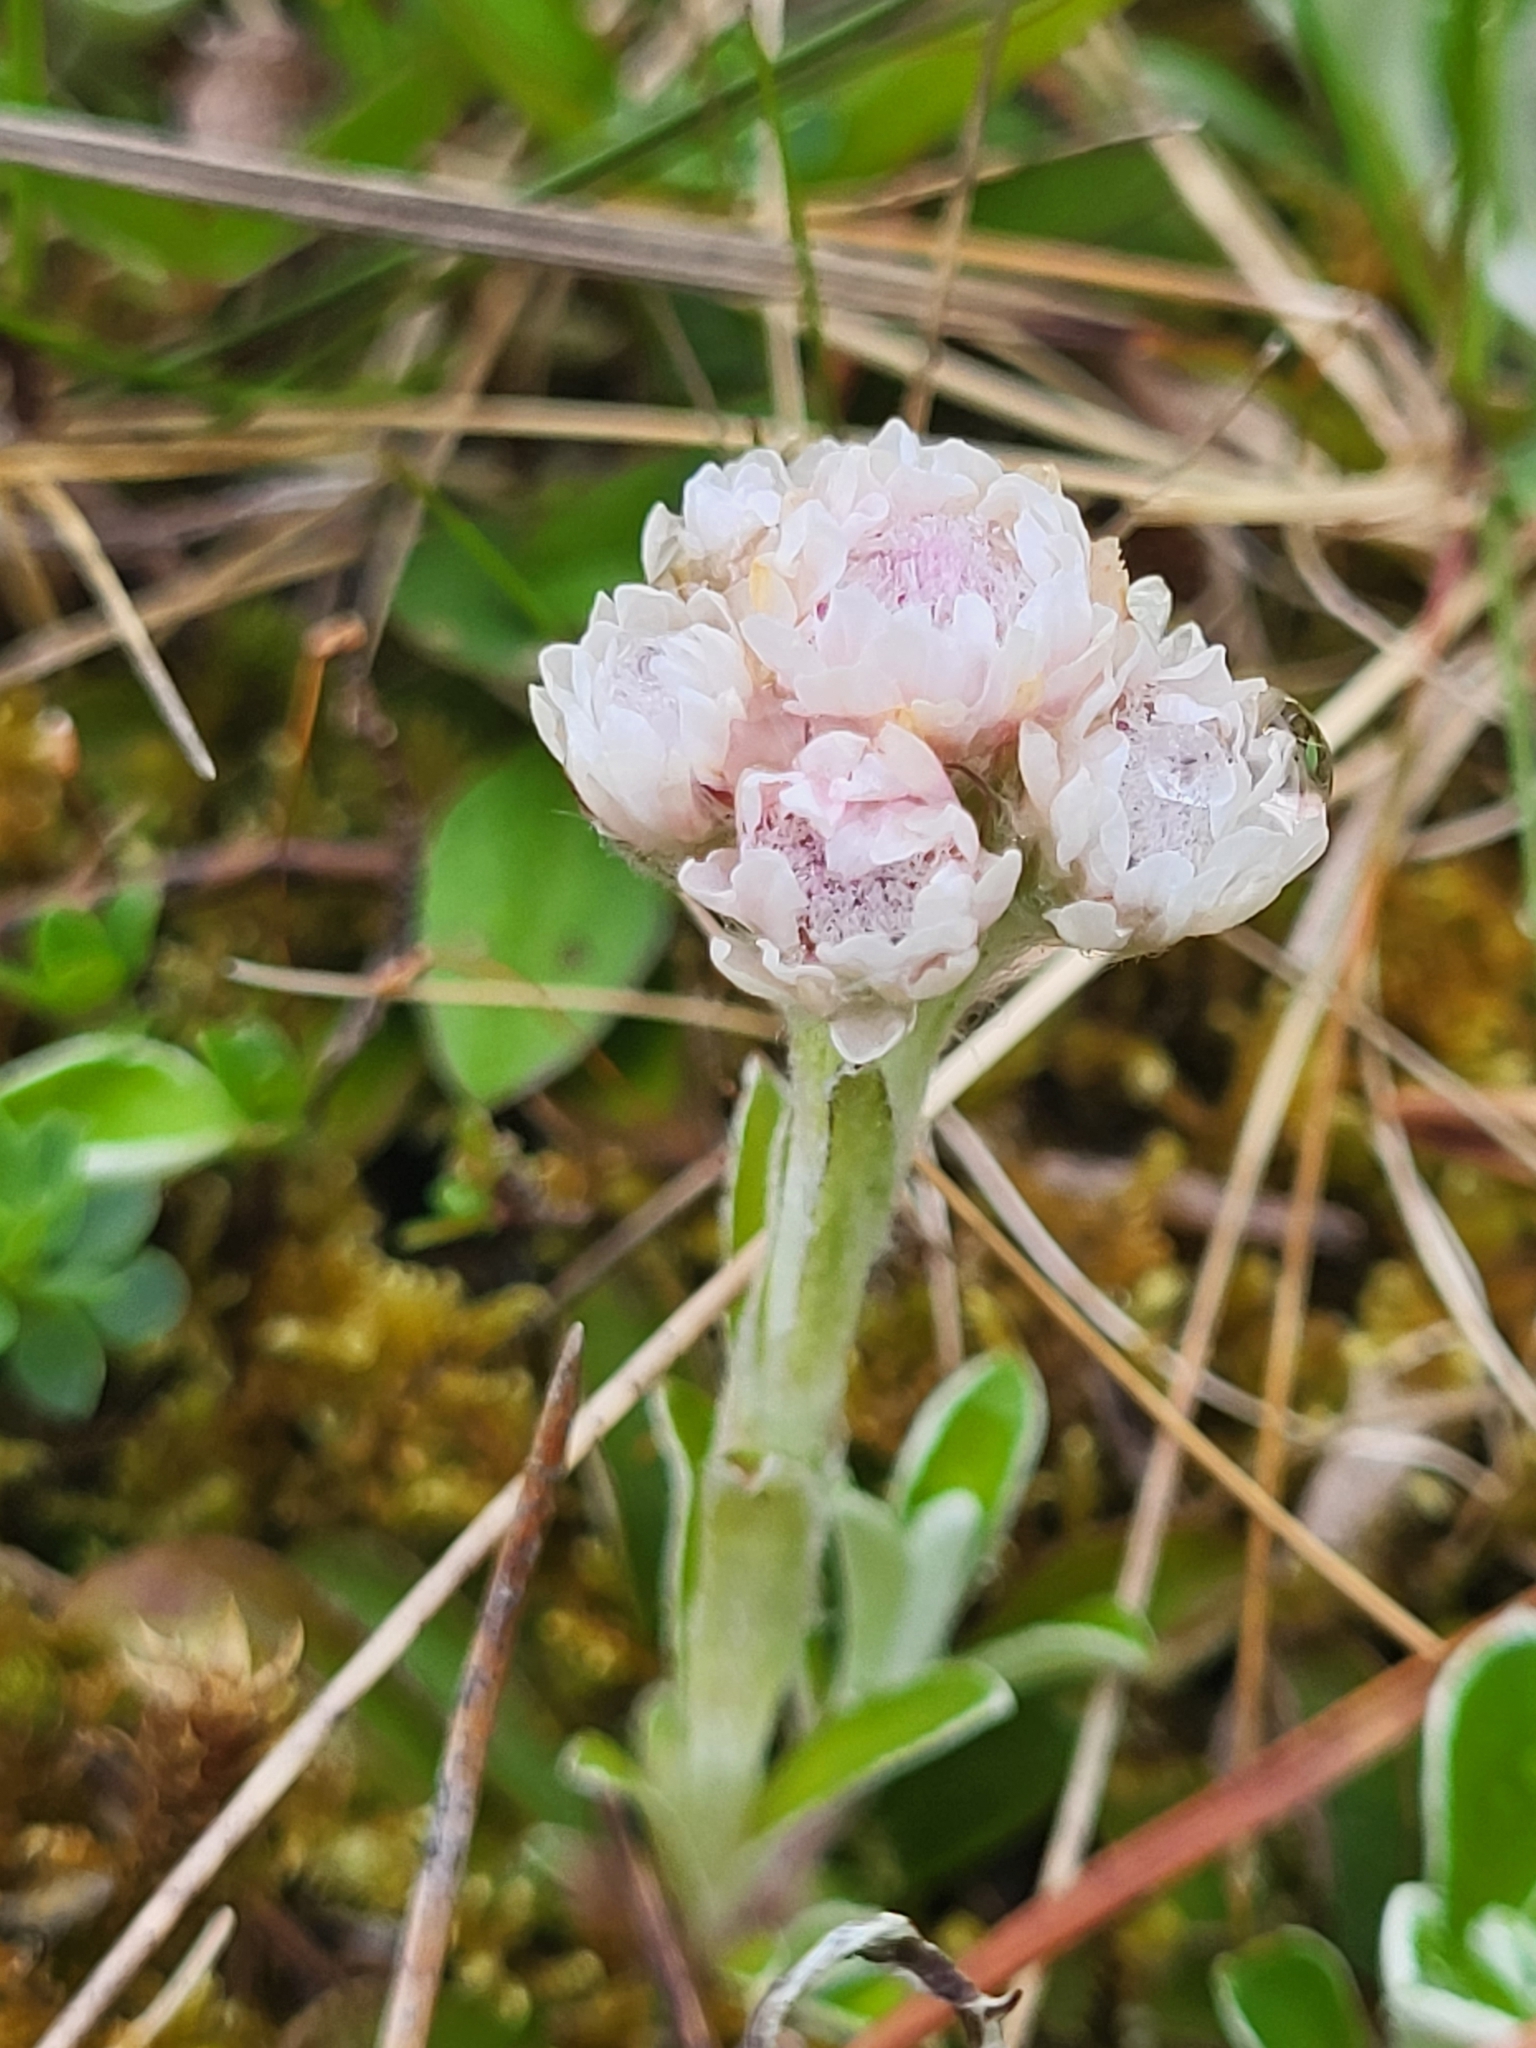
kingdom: Plantae
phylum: Tracheophyta
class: Magnoliopsida
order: Asterales
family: Asteraceae
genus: Antennaria
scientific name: Antennaria dioica
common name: Mountain everlasting
